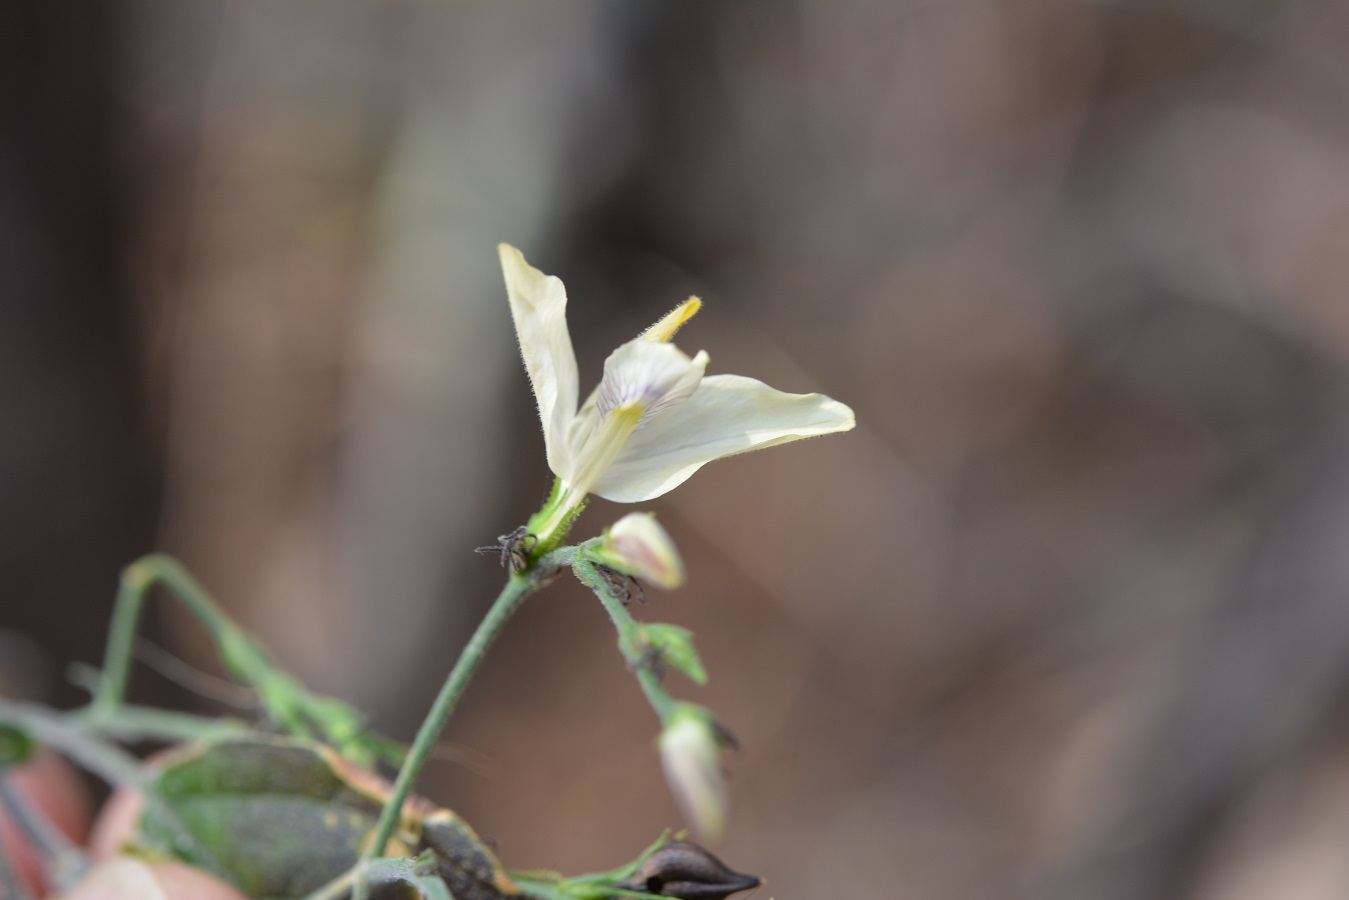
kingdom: Plantae
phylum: Tracheophyta
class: Magnoliopsida
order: Lamiales
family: Acanthaceae
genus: Carlowrightia
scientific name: Carlowrightia arizonica
